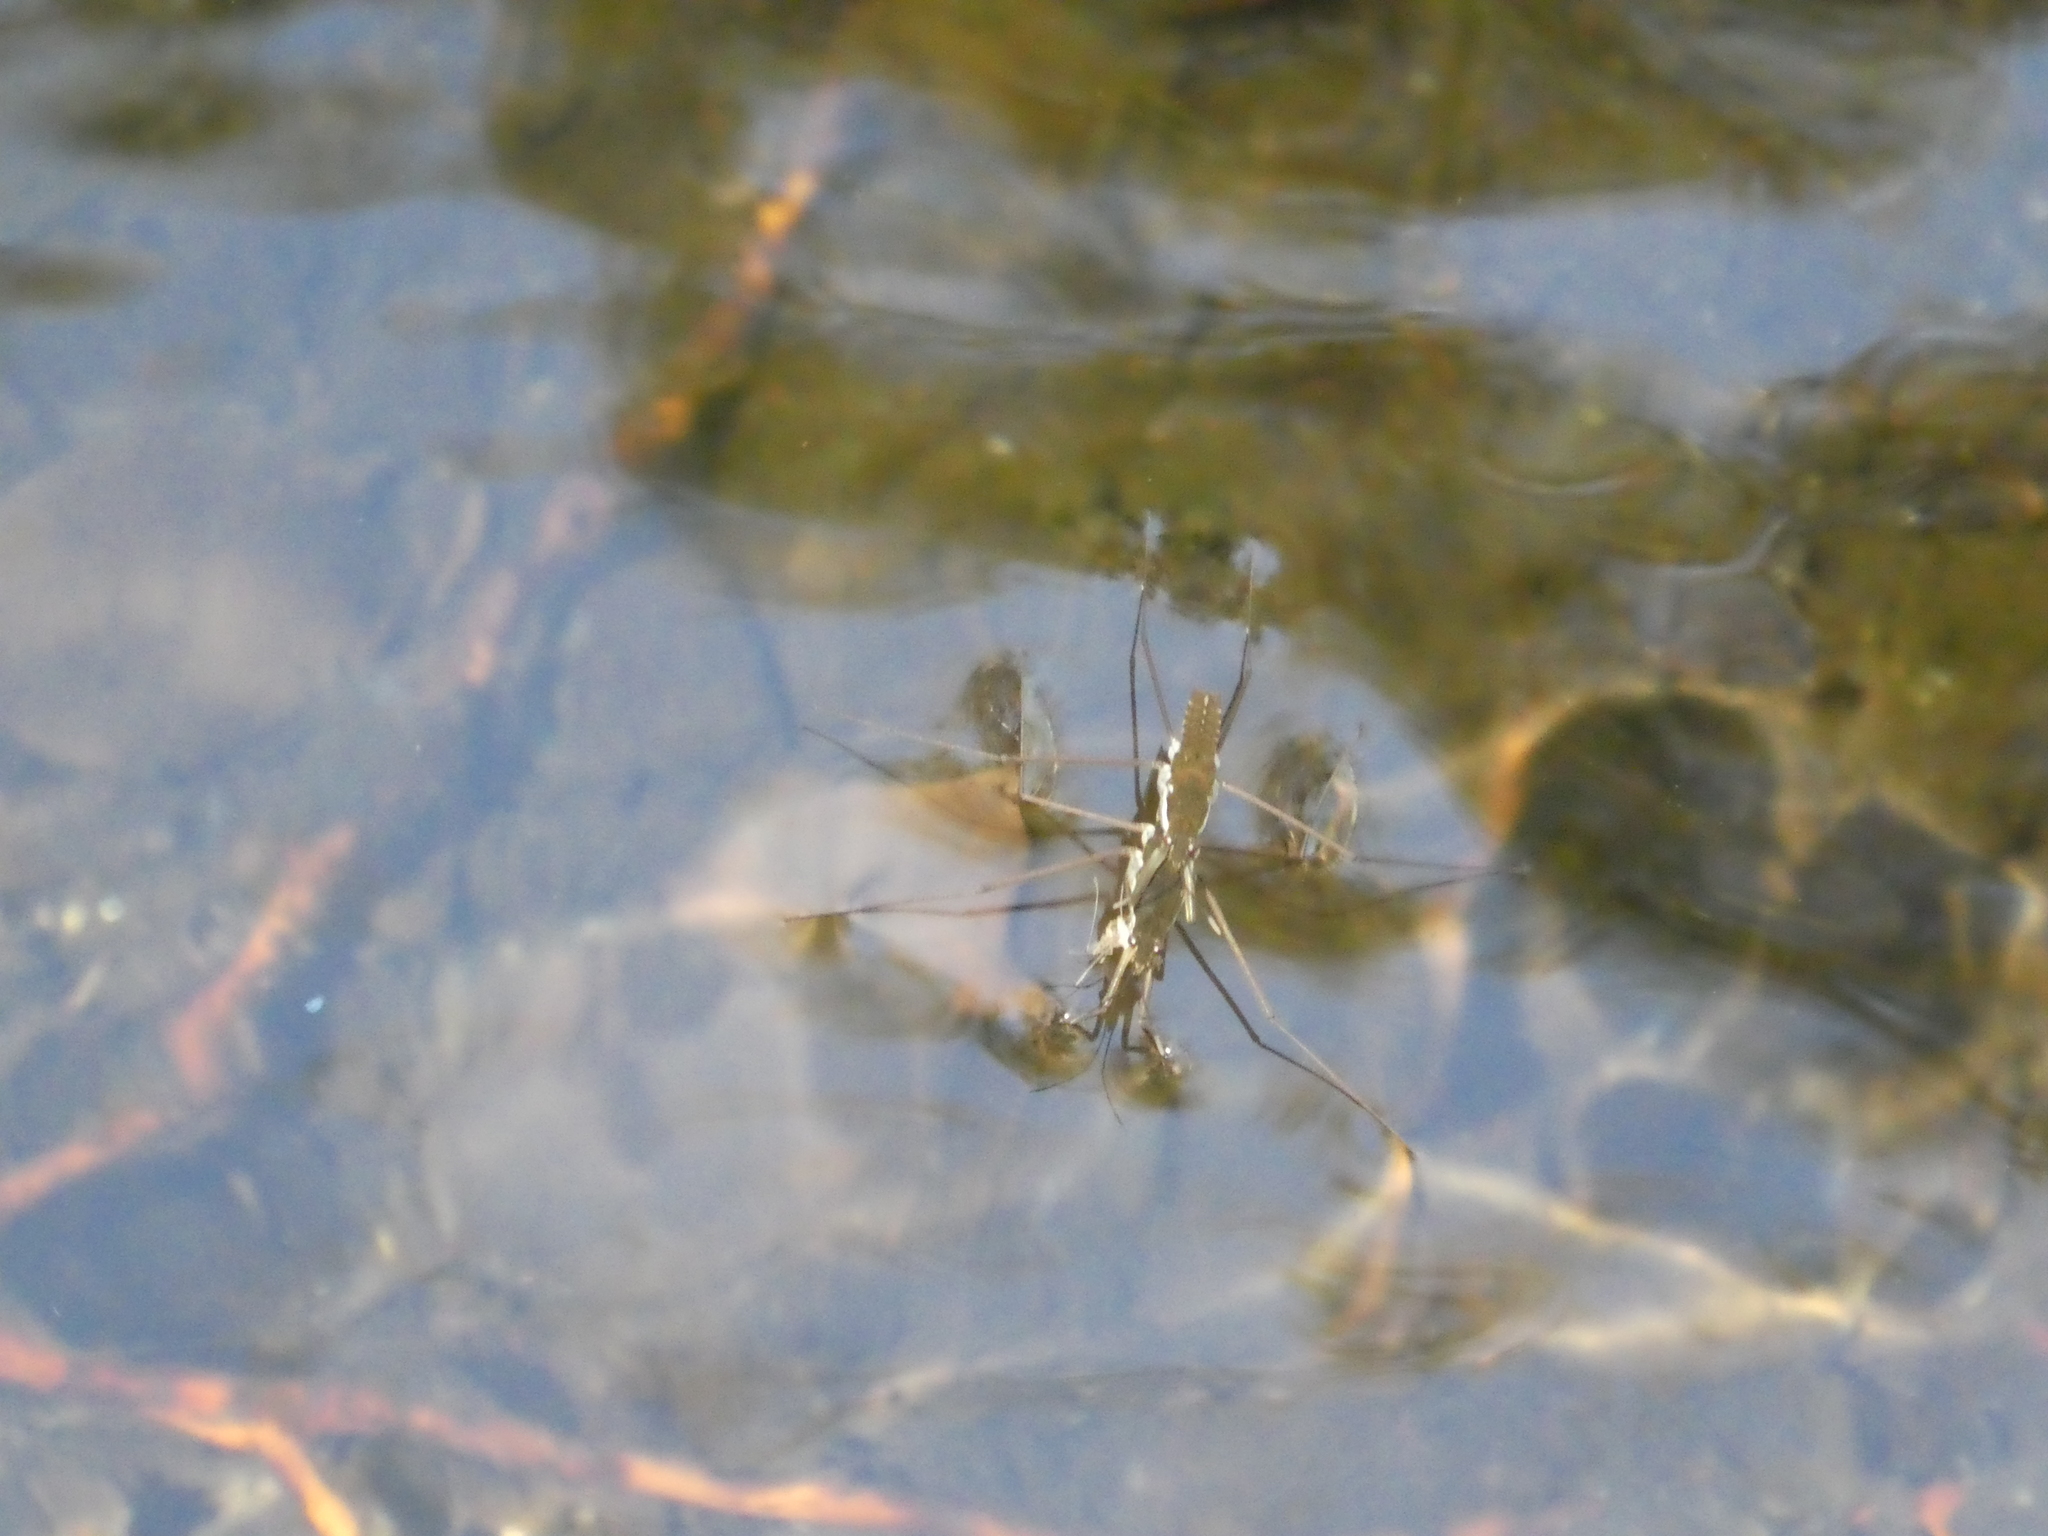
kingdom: Animalia
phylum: Arthropoda
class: Insecta
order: Hemiptera
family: Gerridae
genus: Aquarius
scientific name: Aquarius remigis
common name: Common water strider
